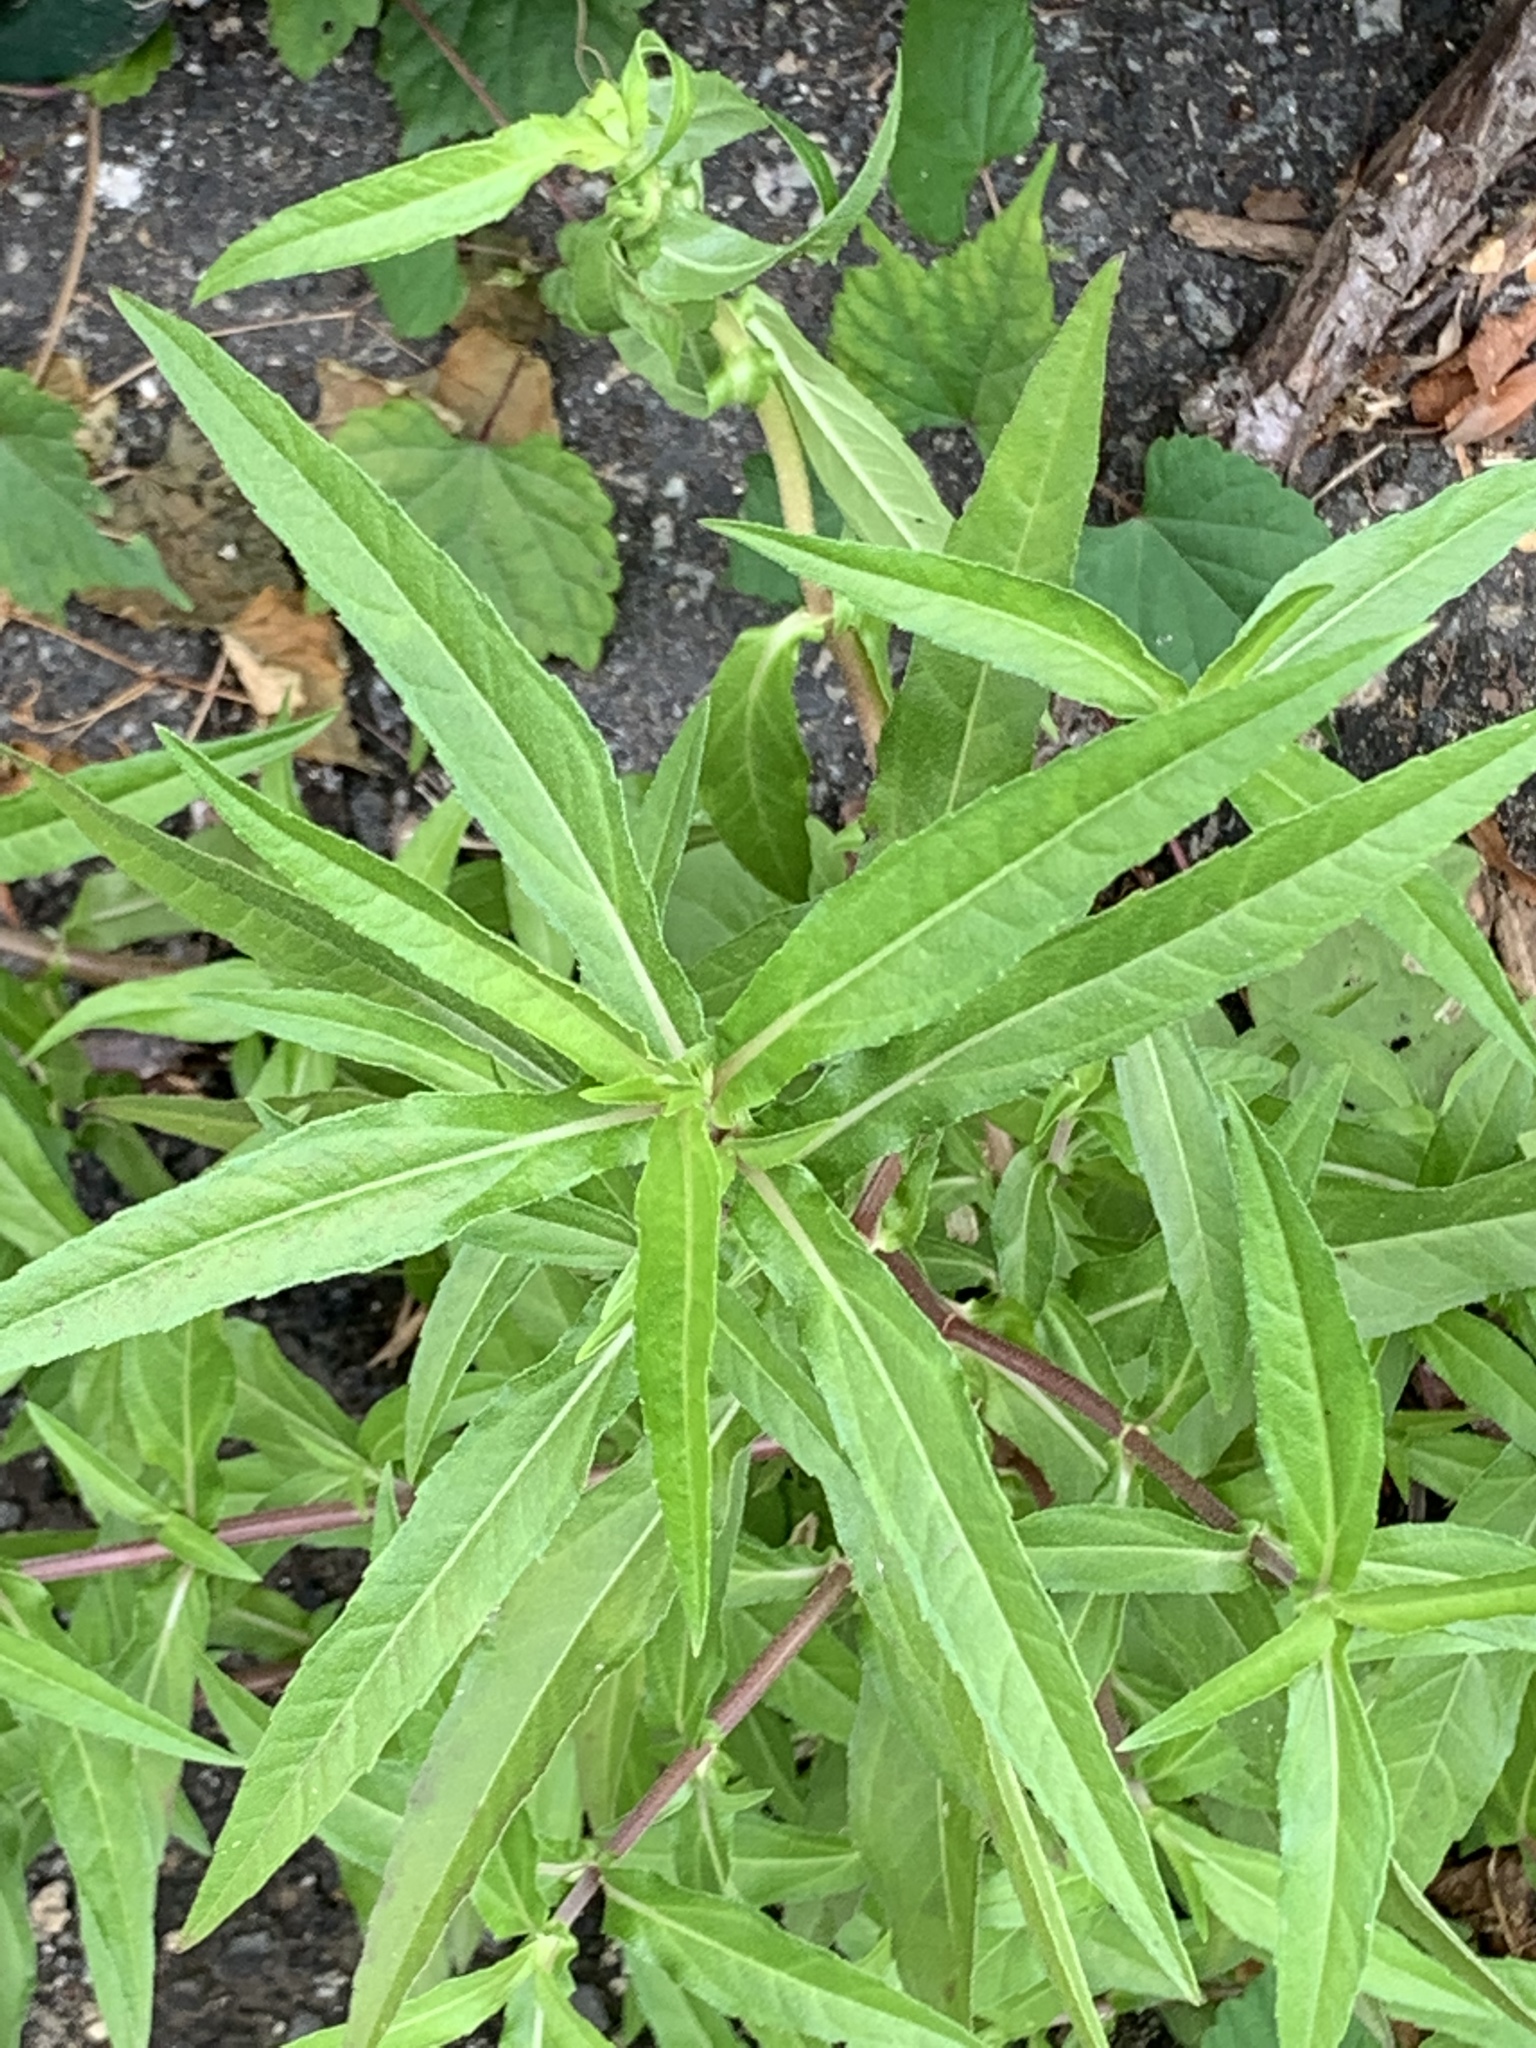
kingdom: Plantae
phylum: Tracheophyta
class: Magnoliopsida
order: Asterales
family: Asteraceae
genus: Eclipta
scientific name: Eclipta prostrata
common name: False daisy
